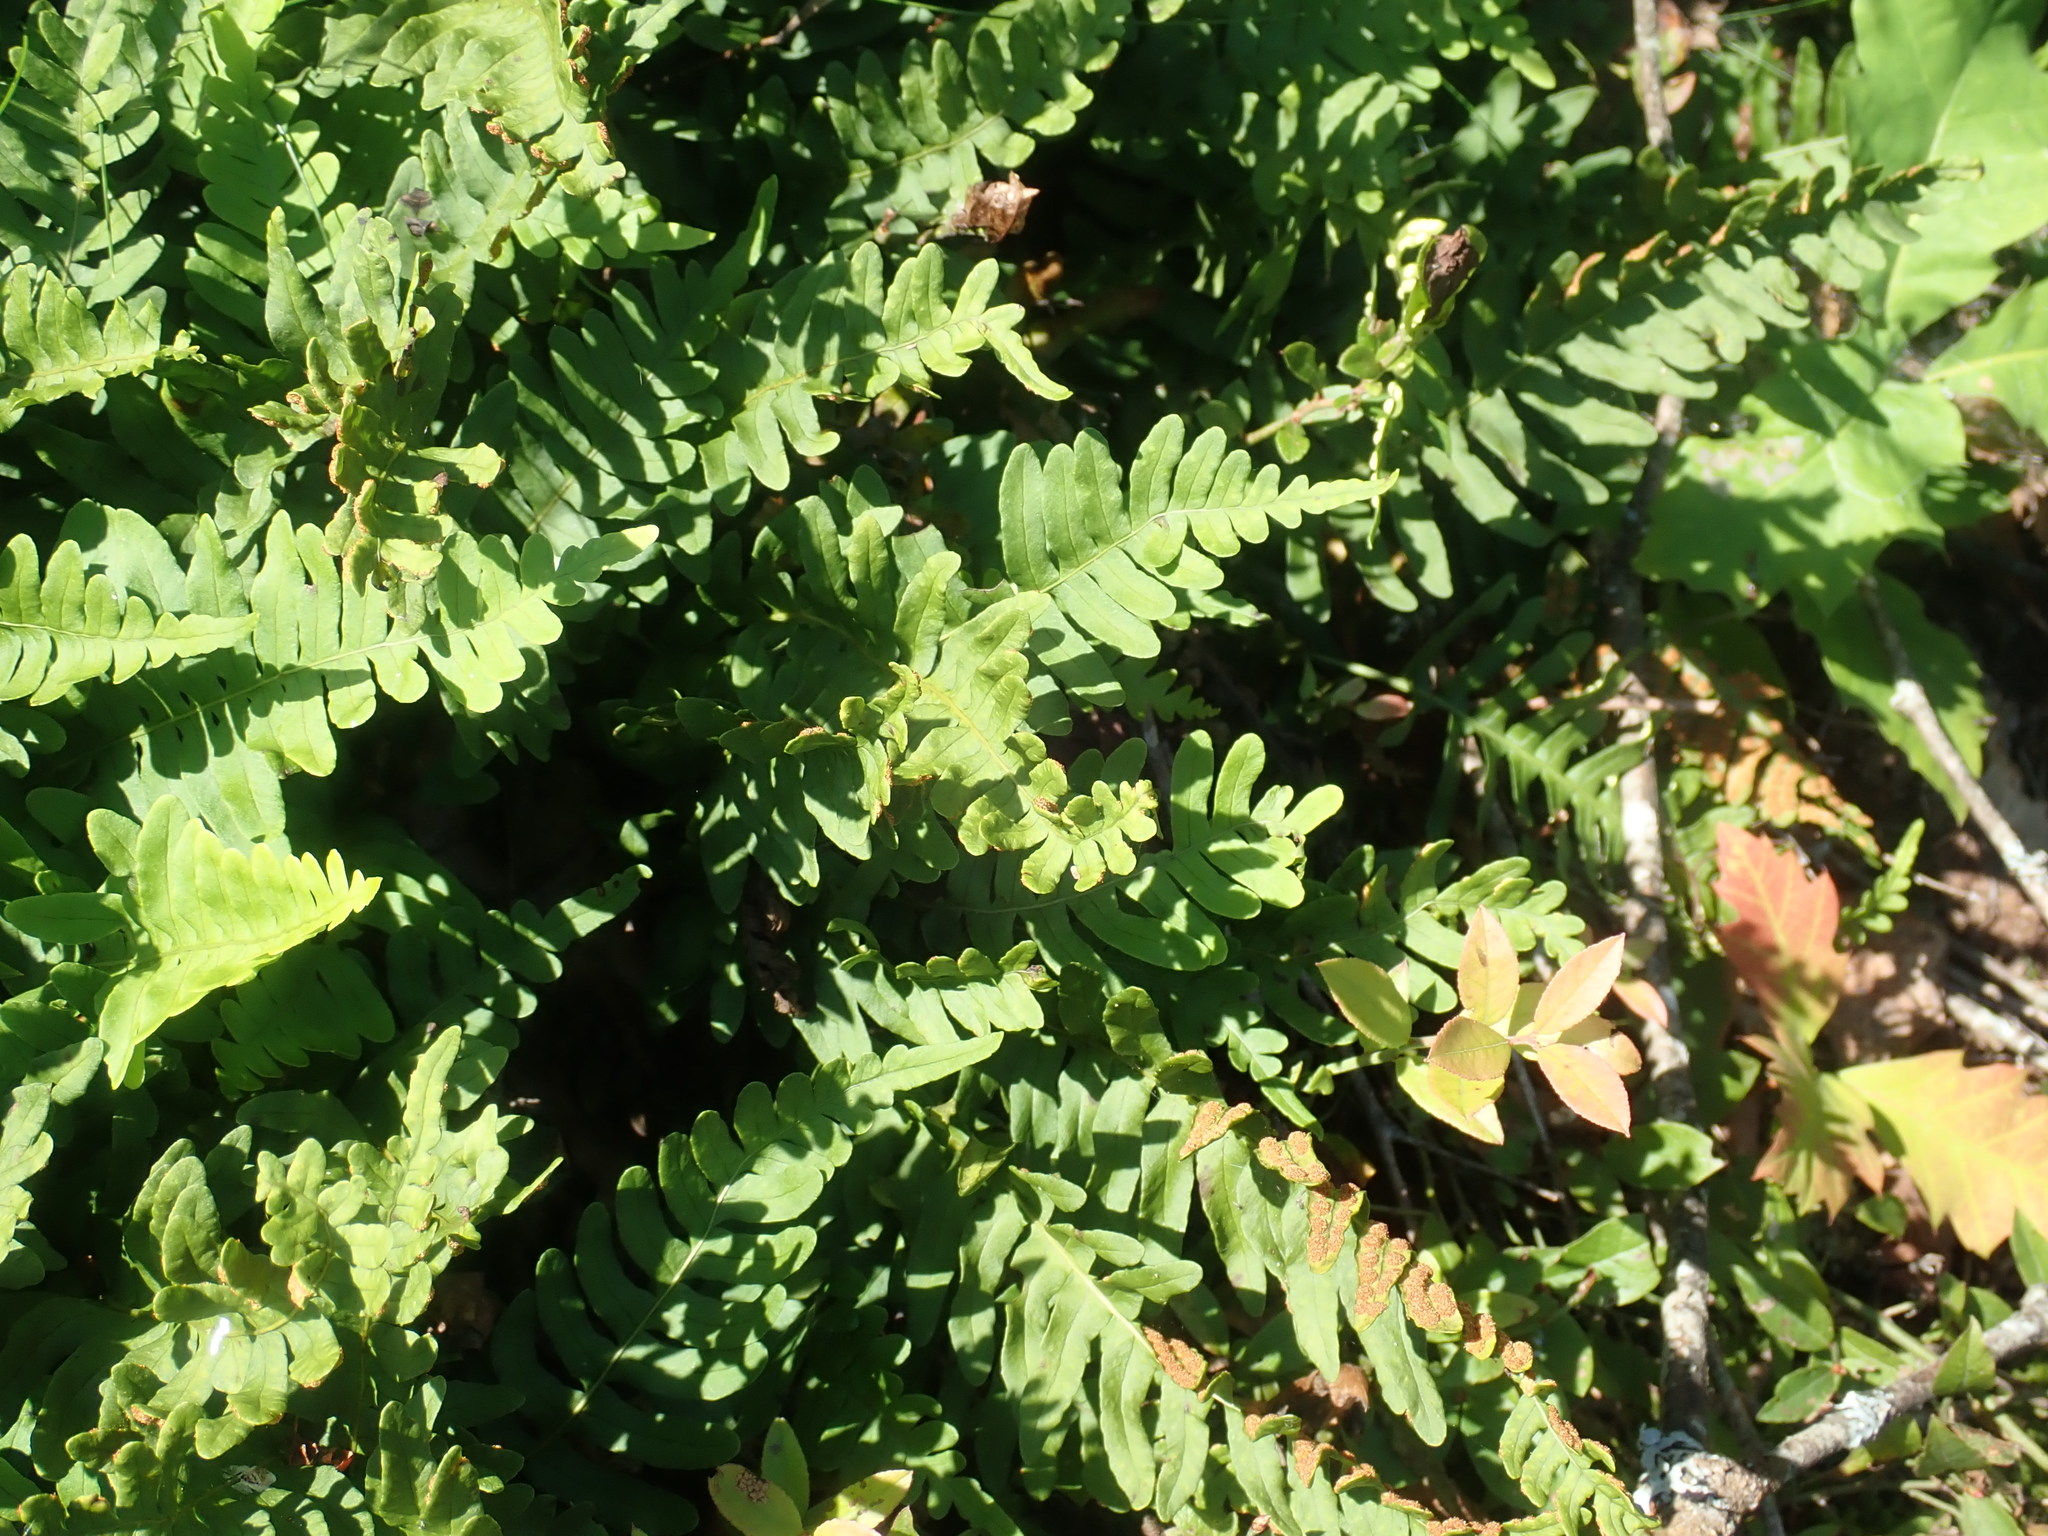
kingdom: Plantae
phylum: Tracheophyta
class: Polypodiopsida
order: Polypodiales
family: Polypodiaceae
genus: Polypodium
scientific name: Polypodium
